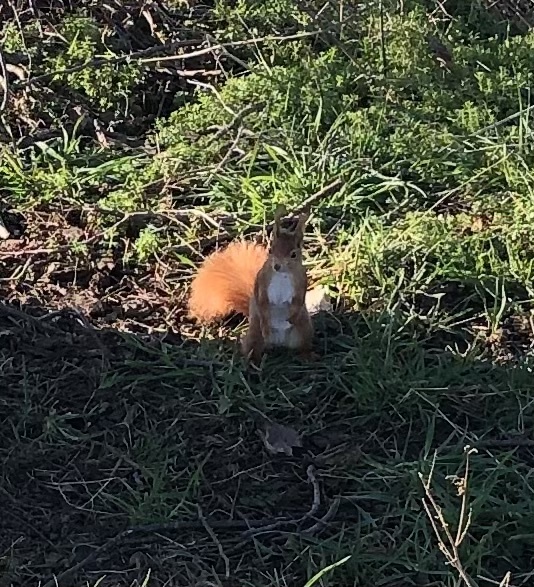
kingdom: Animalia
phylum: Chordata
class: Mammalia
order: Rodentia
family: Sciuridae
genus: Sciurus
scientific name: Sciurus vulgaris
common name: Eurasian red squirrel
